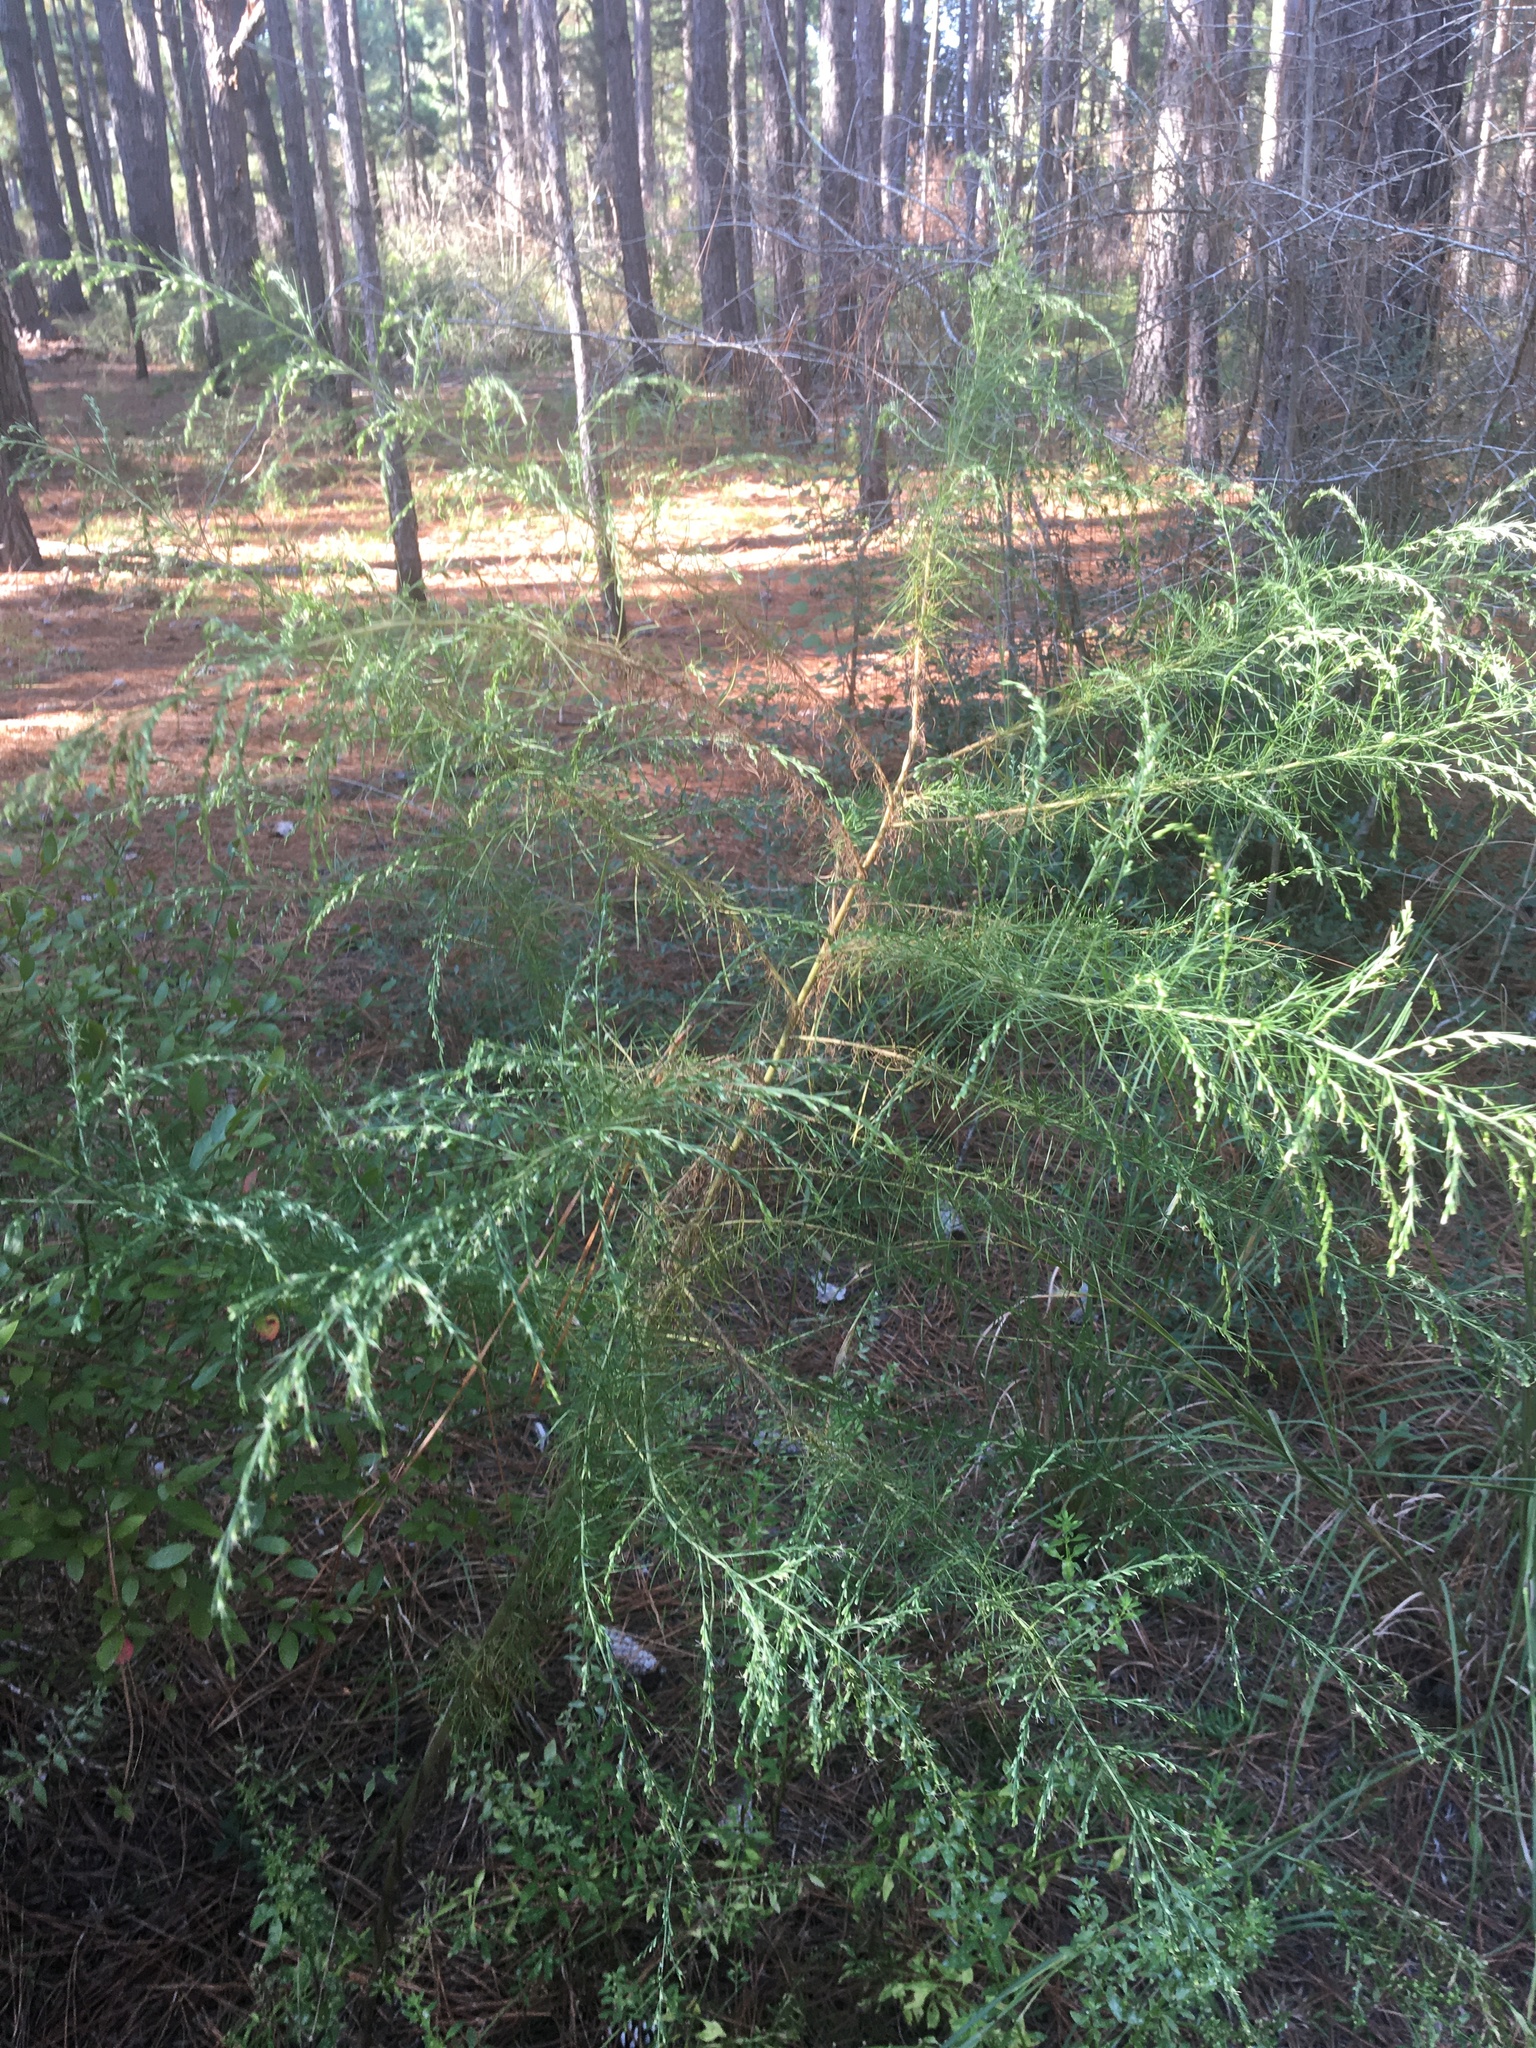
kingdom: Plantae
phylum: Tracheophyta
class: Magnoliopsida
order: Asterales
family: Asteraceae
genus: Eupatorium
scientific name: Eupatorium capillifolium
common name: Dog-fennel
